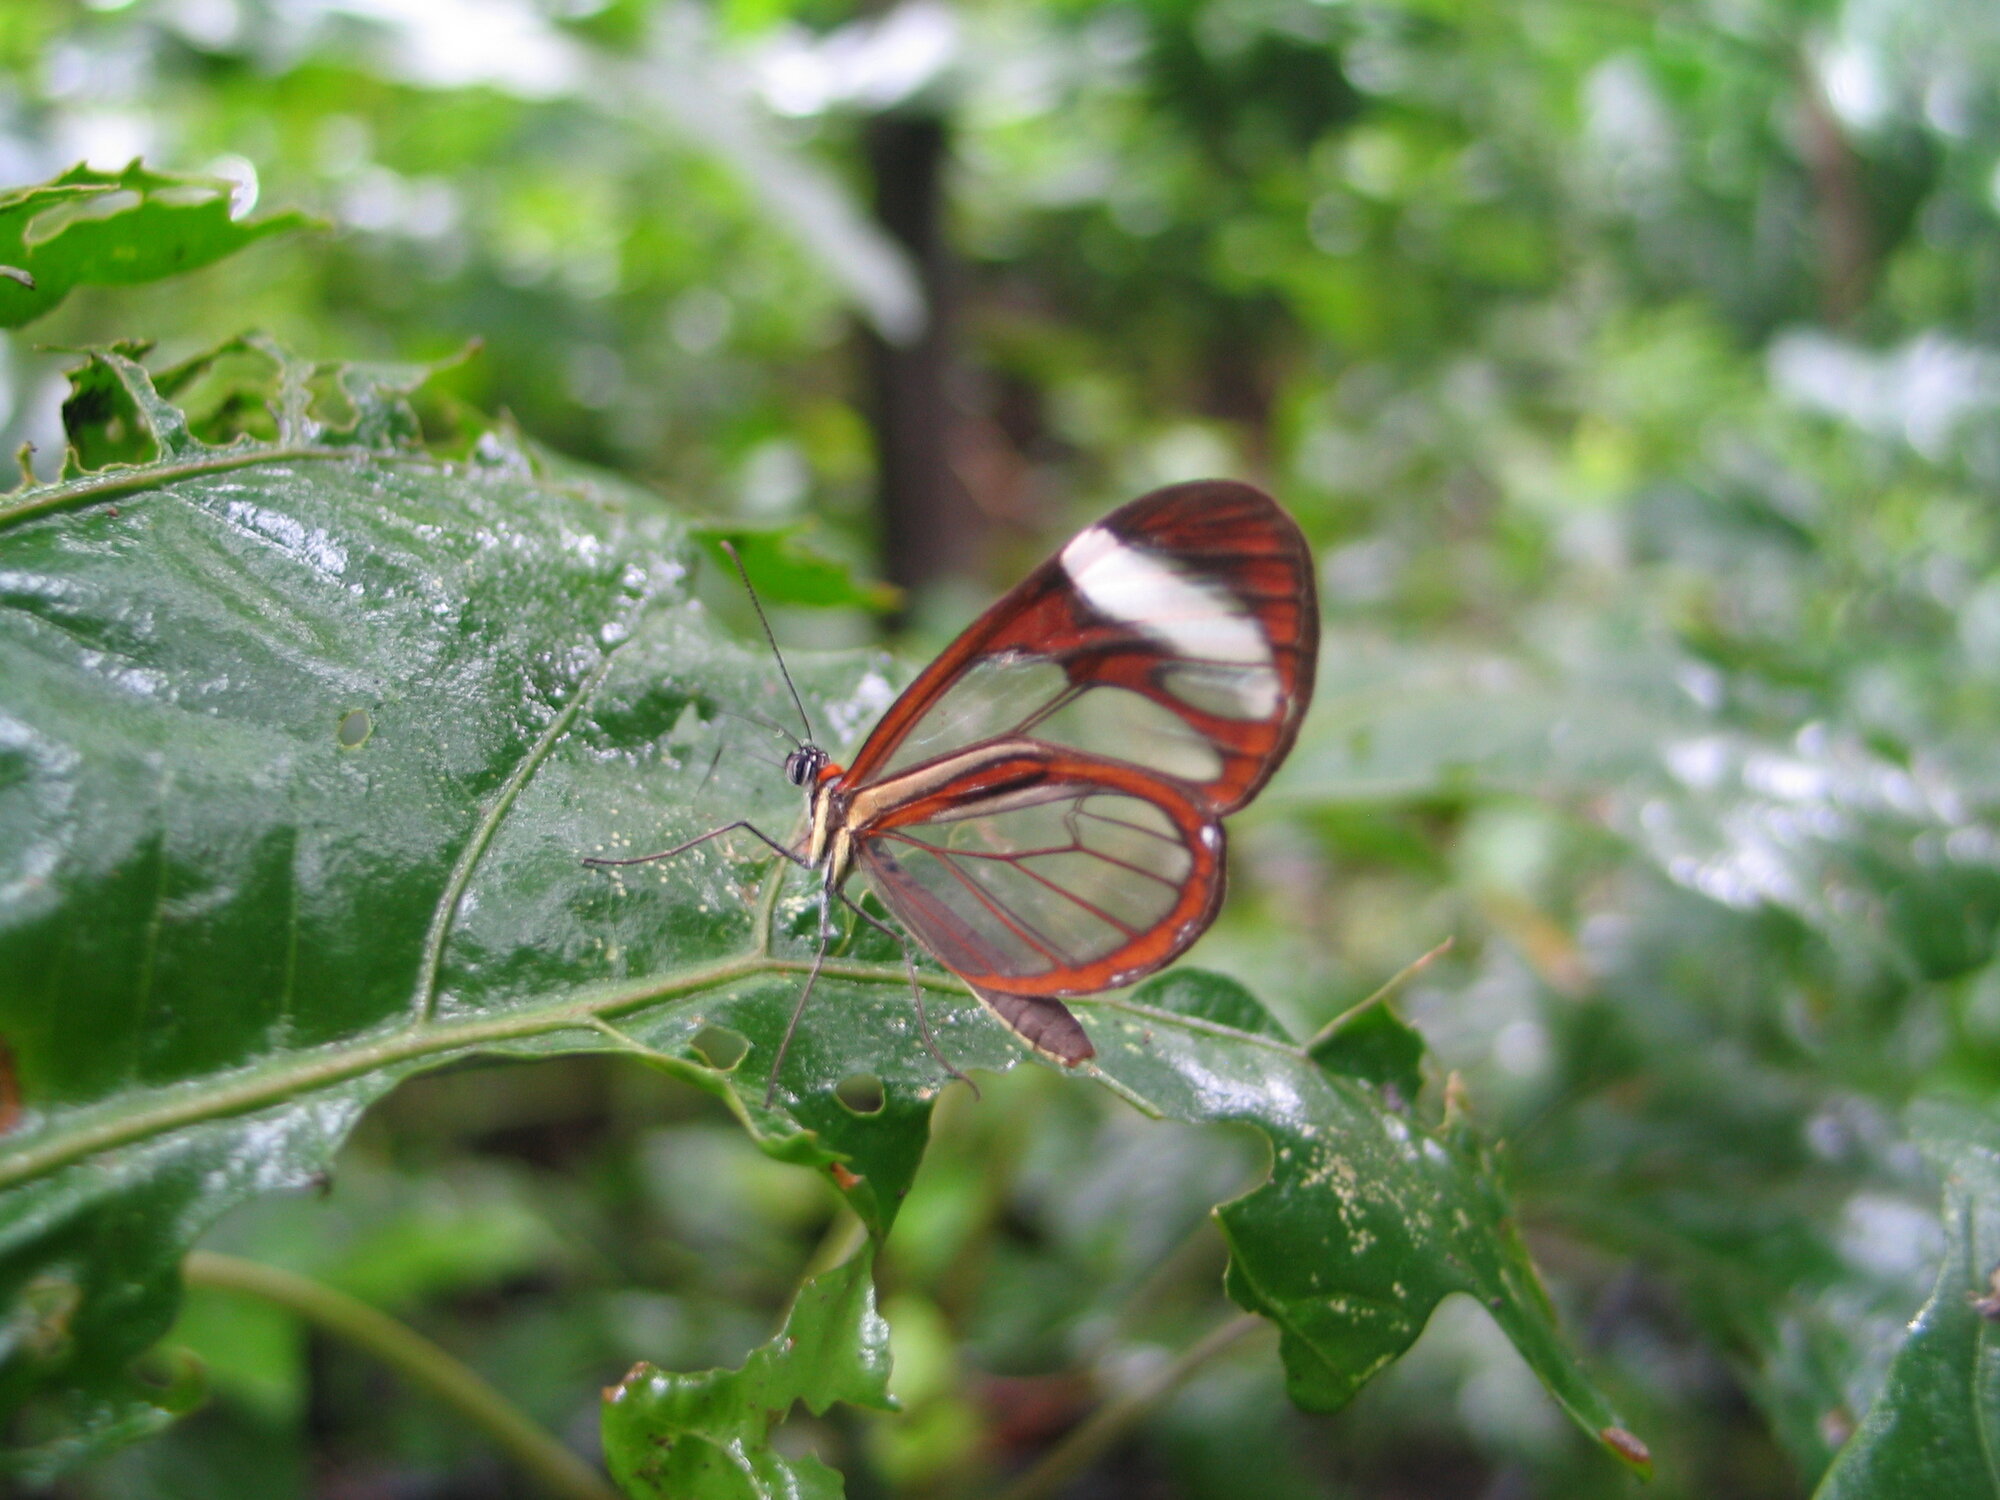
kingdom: Animalia
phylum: Arthropoda
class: Insecta
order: Lepidoptera
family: Nymphalidae
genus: Ithomia
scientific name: Ithomia patilla
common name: Patilla clearwing
